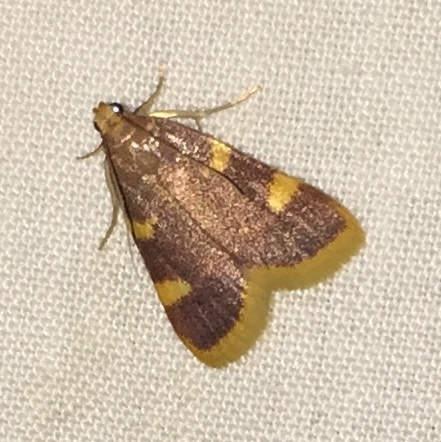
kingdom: Animalia
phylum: Arthropoda
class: Insecta
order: Lepidoptera
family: Pyralidae
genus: Hypsopygia
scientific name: Hypsopygia costalis
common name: Gold triangle
